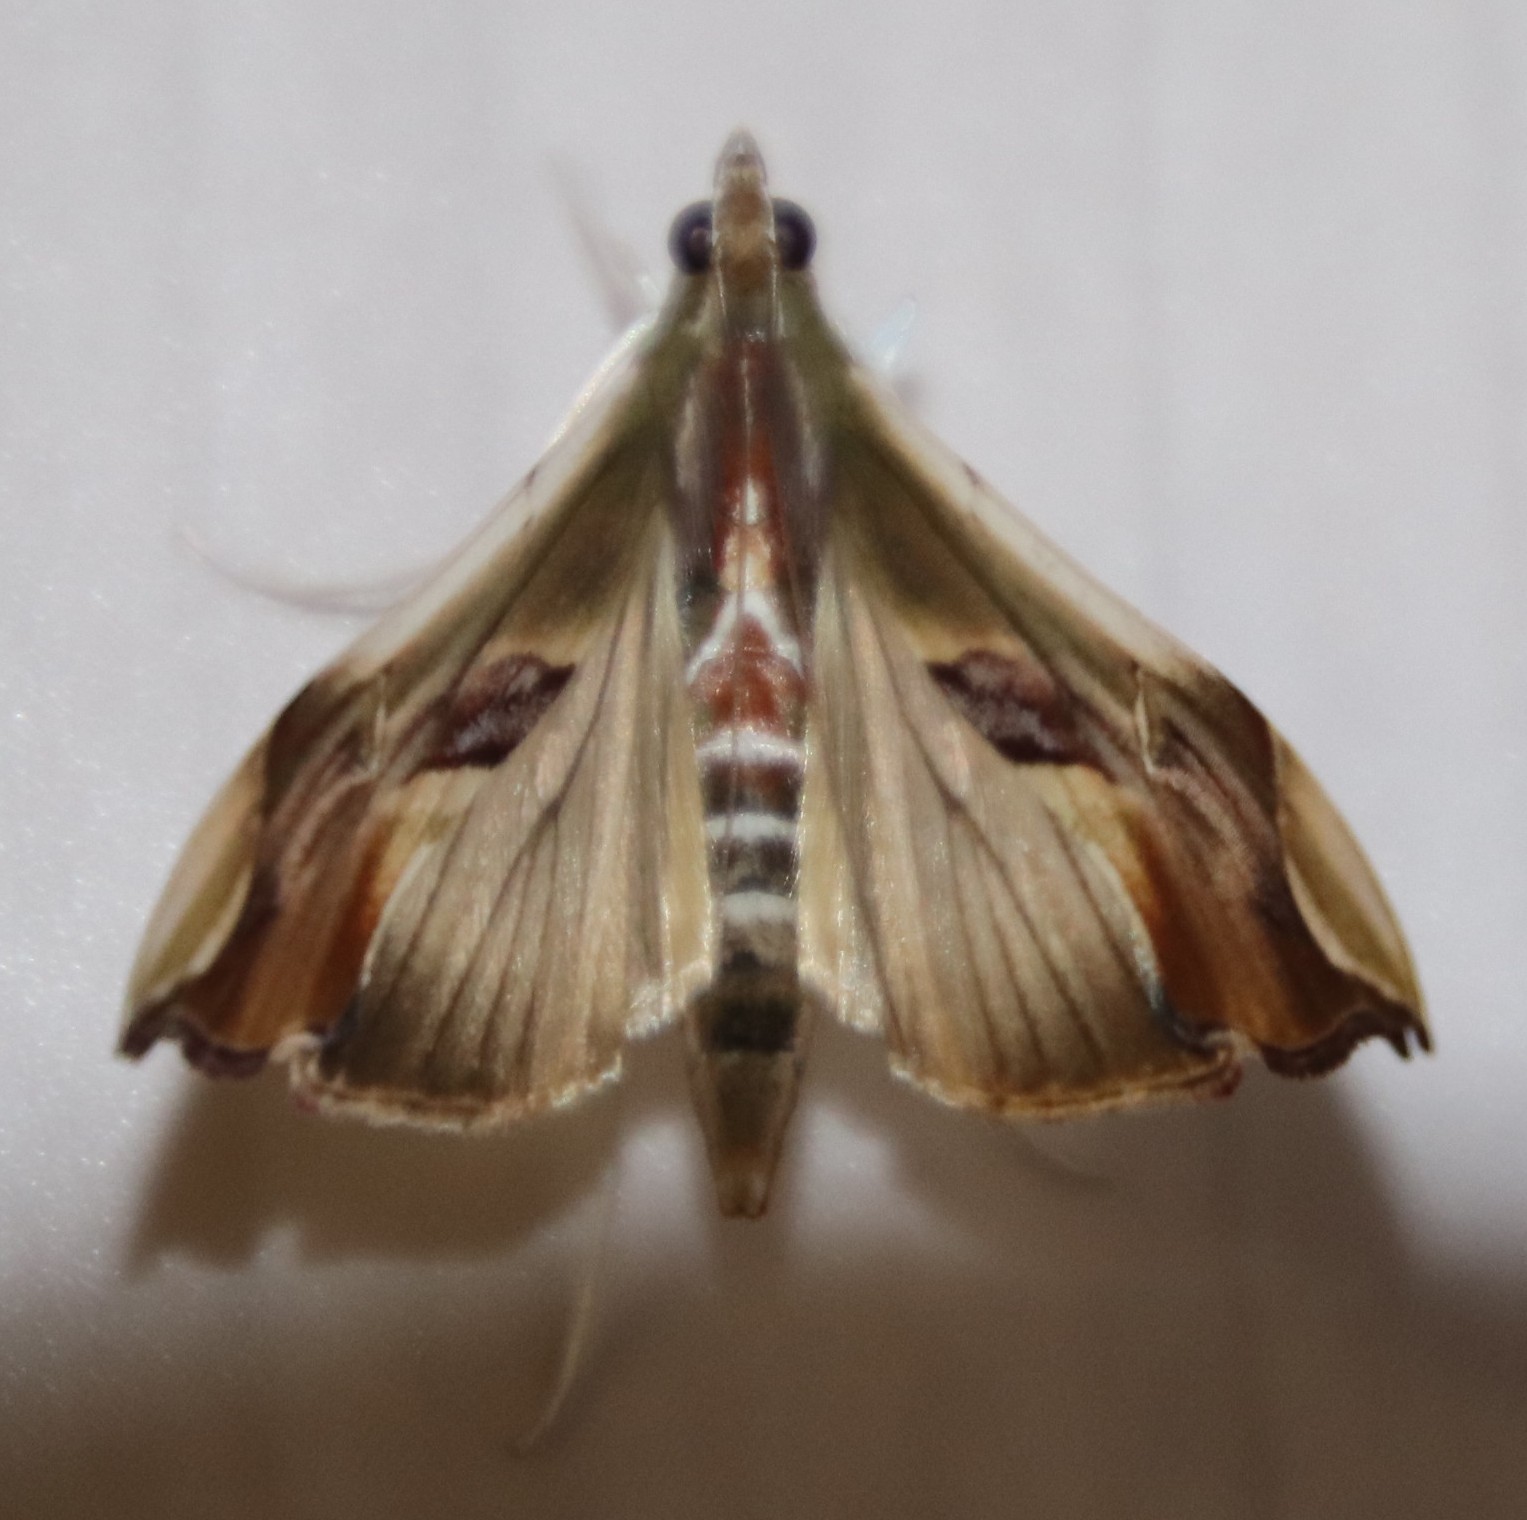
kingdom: Animalia
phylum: Arthropoda
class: Insecta
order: Lepidoptera
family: Crambidae
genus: Agathodes
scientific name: Agathodes musivalis
